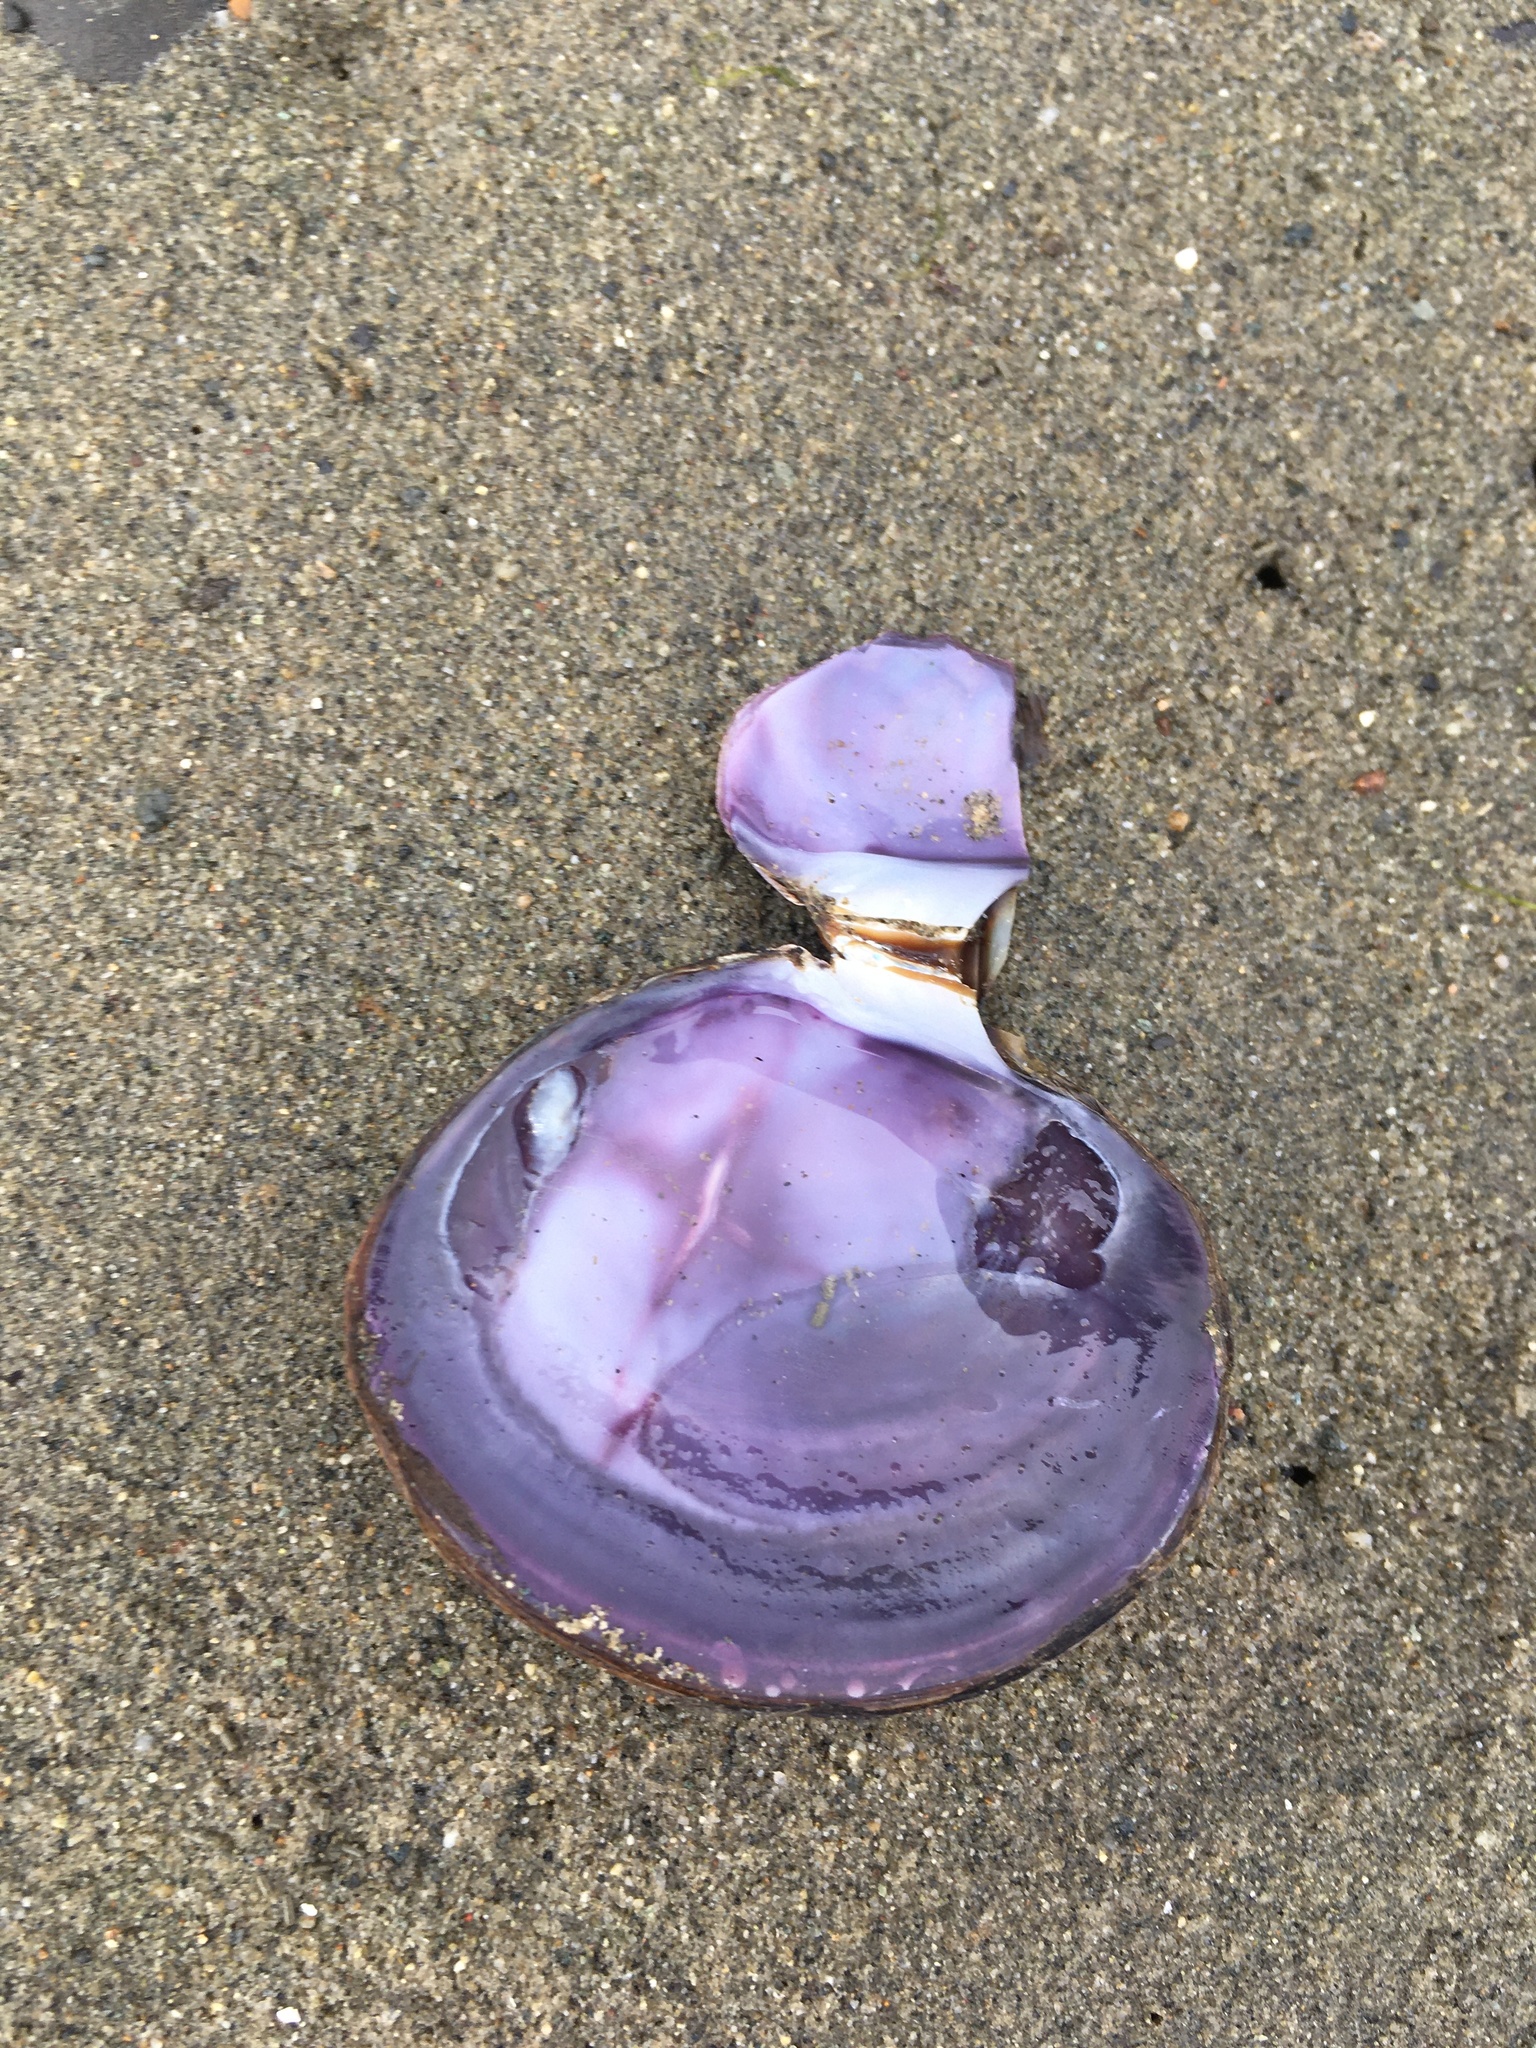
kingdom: Animalia
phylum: Mollusca
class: Bivalvia
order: Cardiida
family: Psammobiidae
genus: Nuttallia
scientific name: Nuttallia obscurata
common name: Purple mahogany-clam
